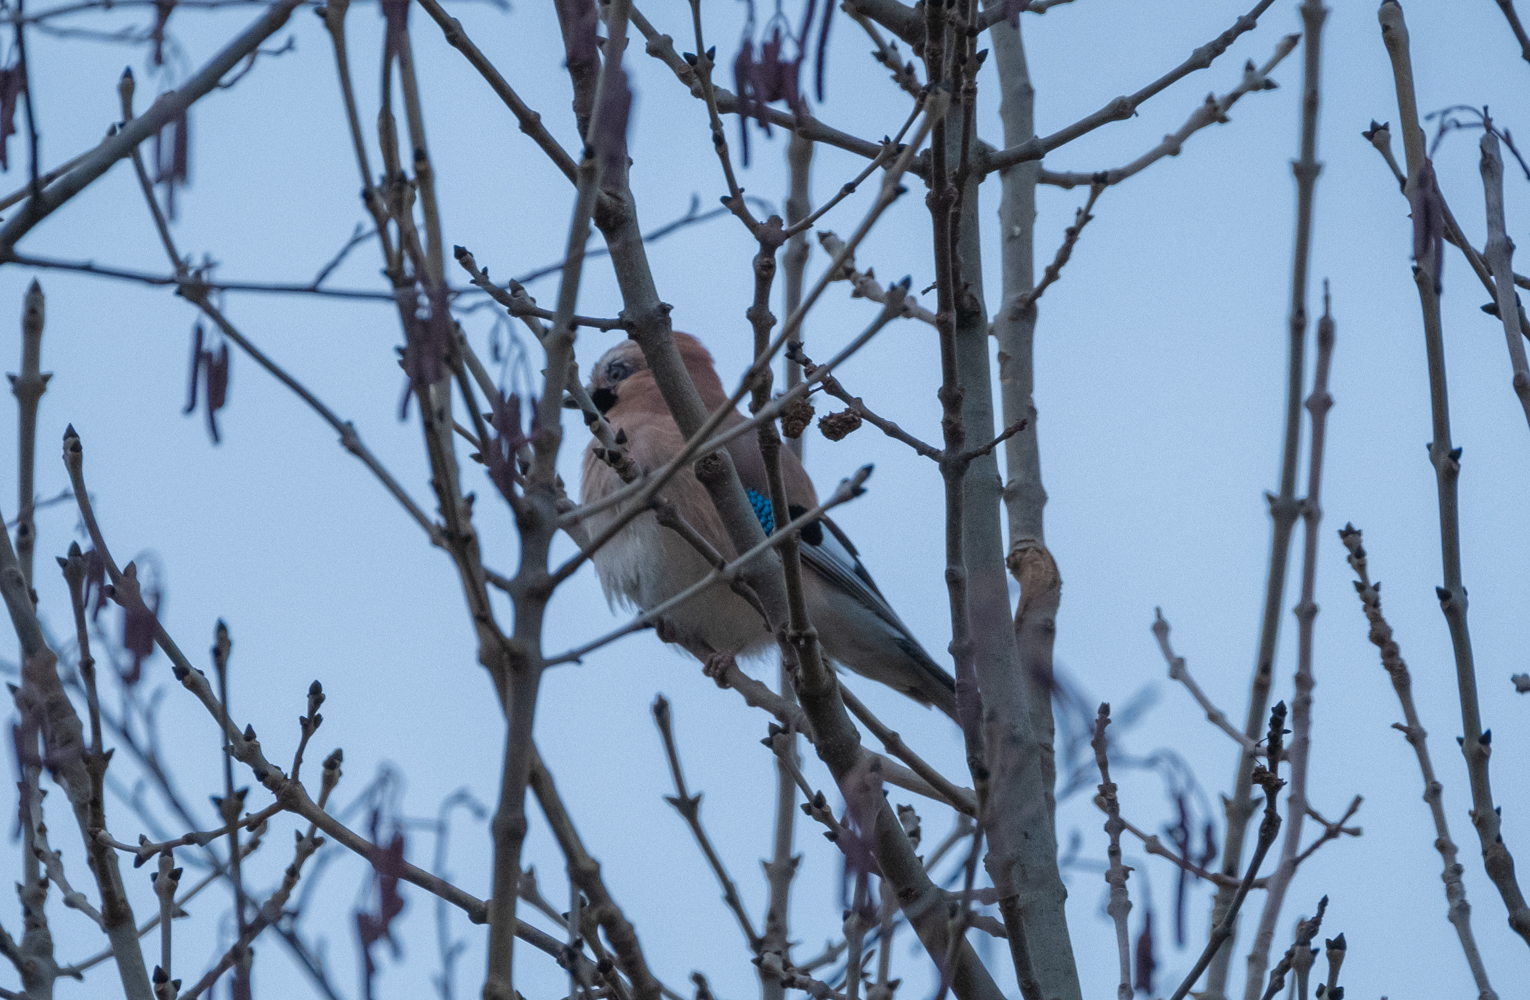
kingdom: Animalia
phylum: Chordata
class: Aves
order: Passeriformes
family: Corvidae
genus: Garrulus
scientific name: Garrulus glandarius
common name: Eurasian jay
